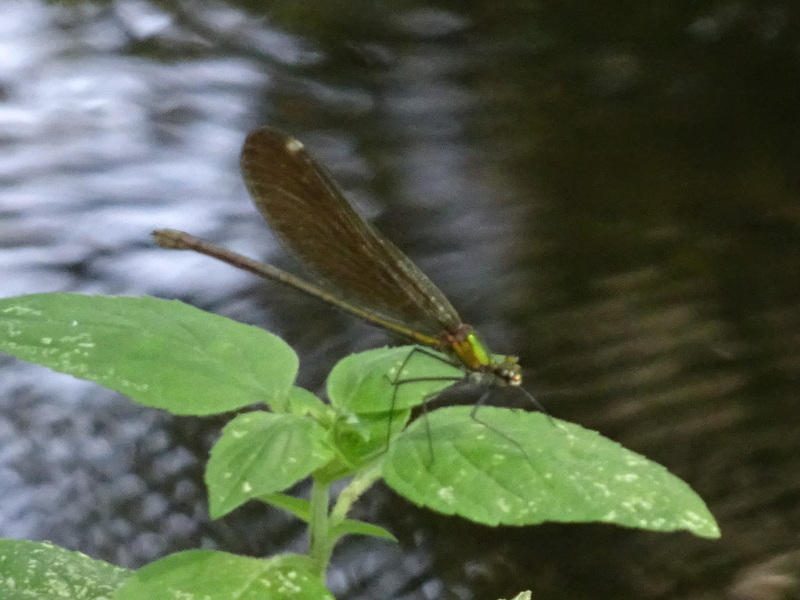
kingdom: Animalia
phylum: Arthropoda
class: Insecta
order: Odonata
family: Calopterygidae
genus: Calopteryx
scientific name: Calopteryx virgo
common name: Beautiful demoiselle
